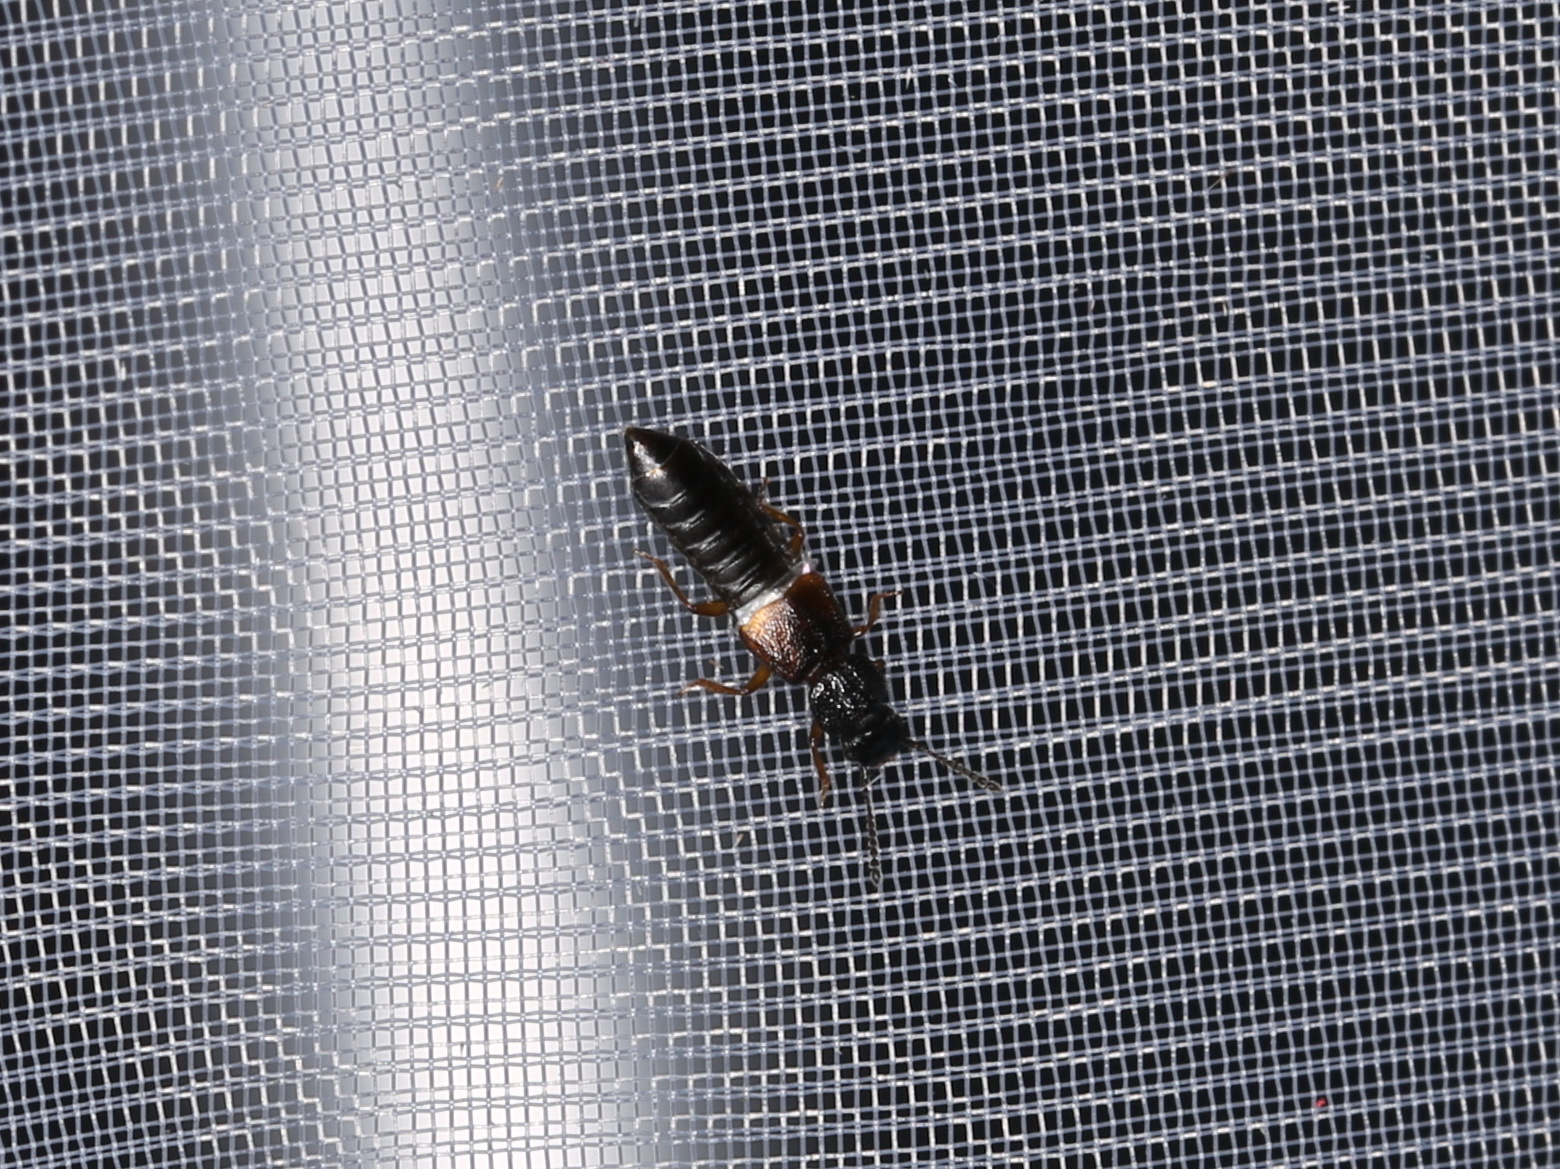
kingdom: Animalia
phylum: Arthropoda
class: Insecta
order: Coleoptera
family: Staphylinidae
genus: Anotylus
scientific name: Anotylus rugosus
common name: Rove beetle
